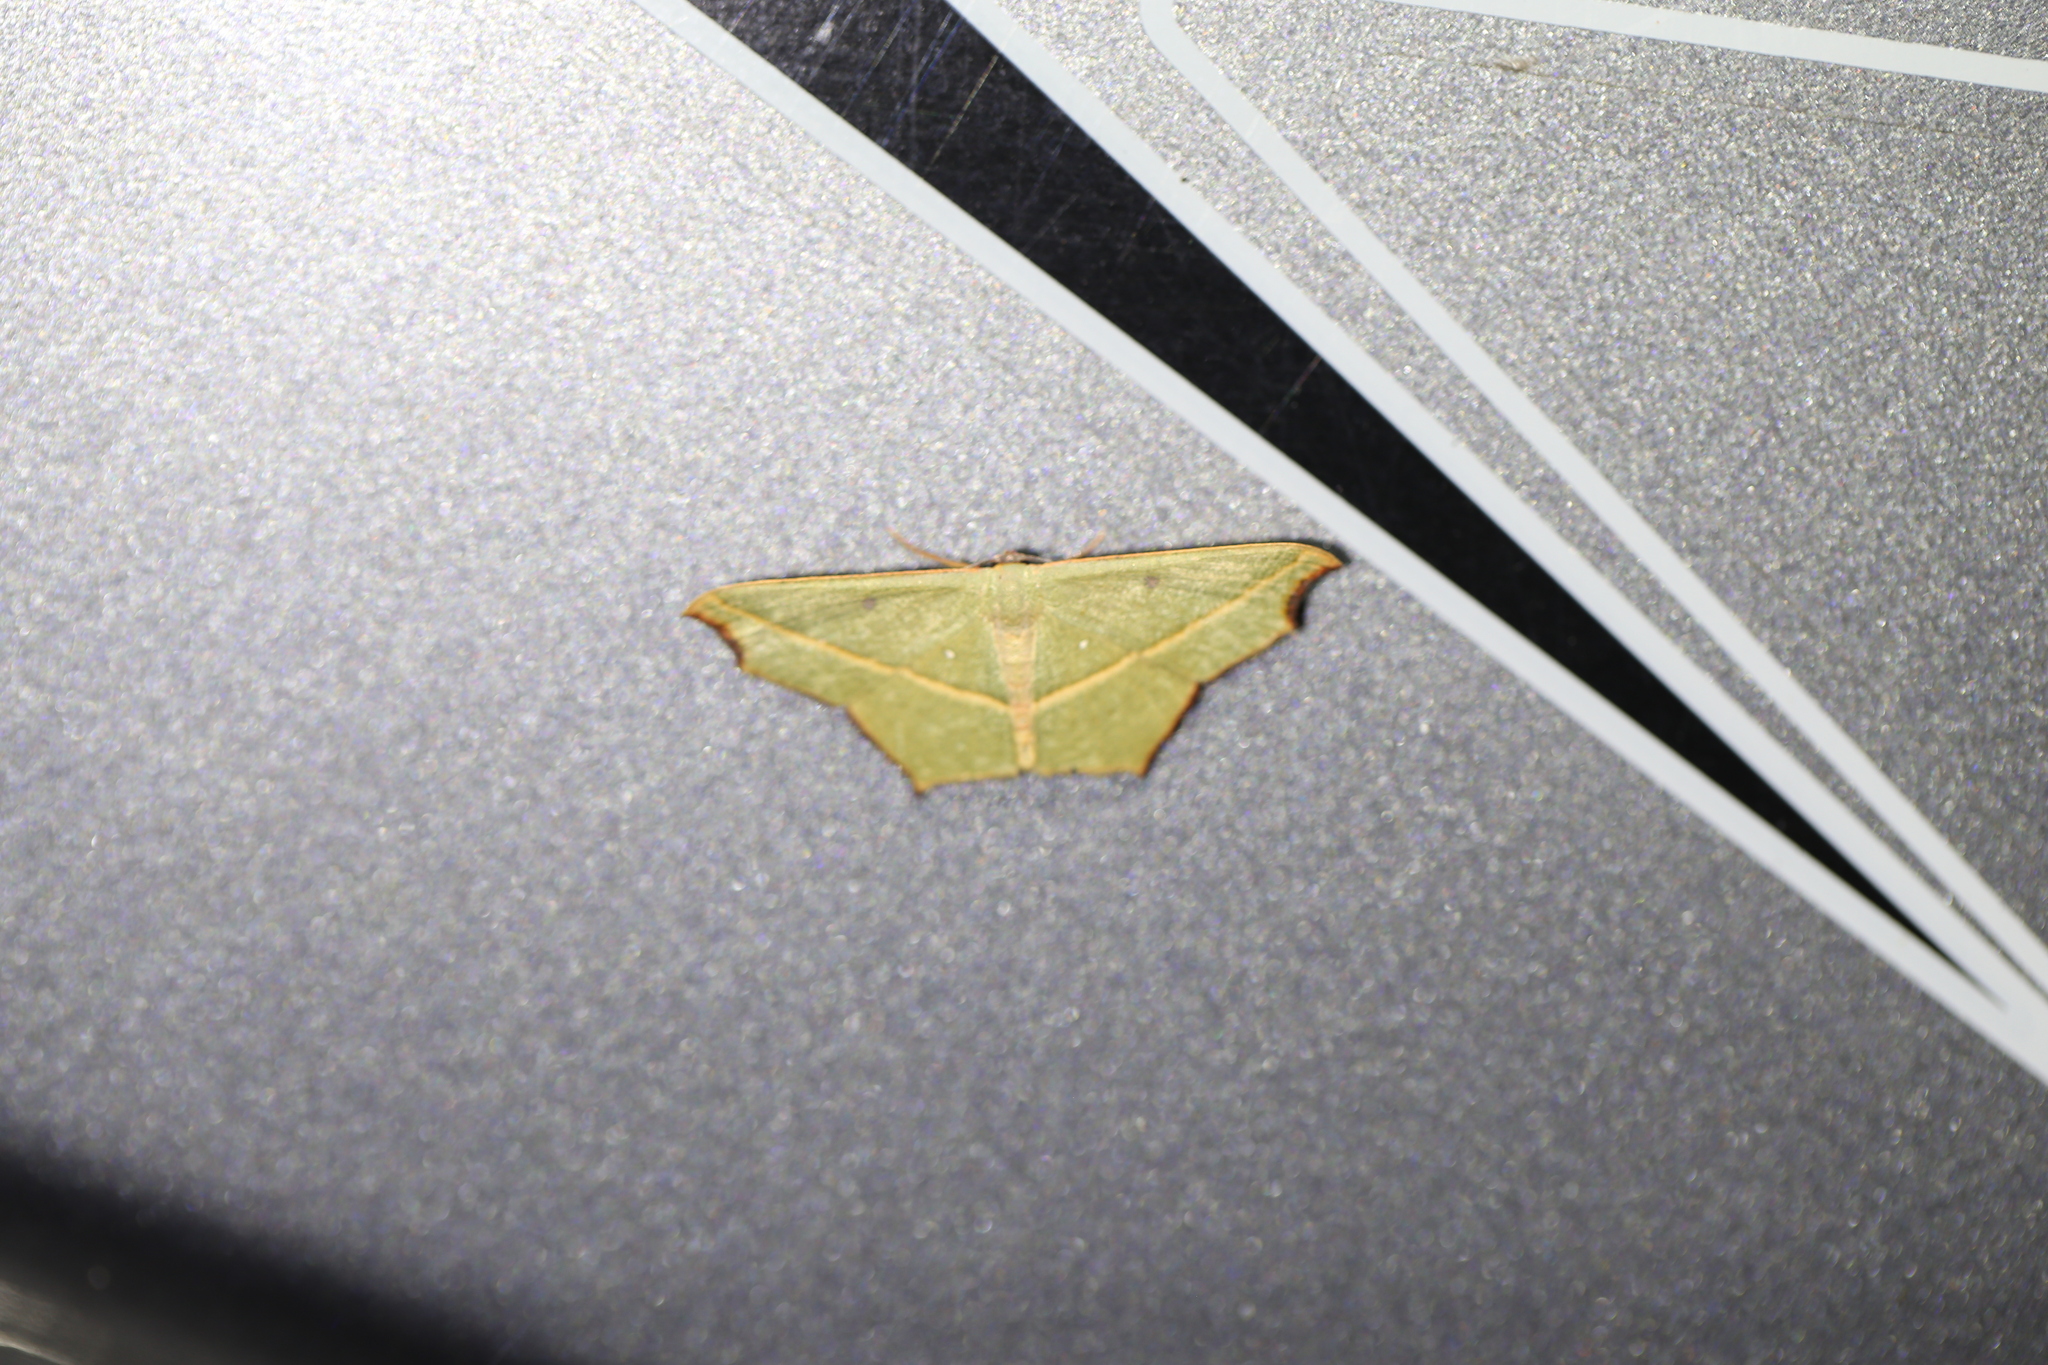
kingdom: Animalia
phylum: Arthropoda
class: Insecta
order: Lepidoptera
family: Geometridae
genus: Traminda
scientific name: Traminda aventiaria
